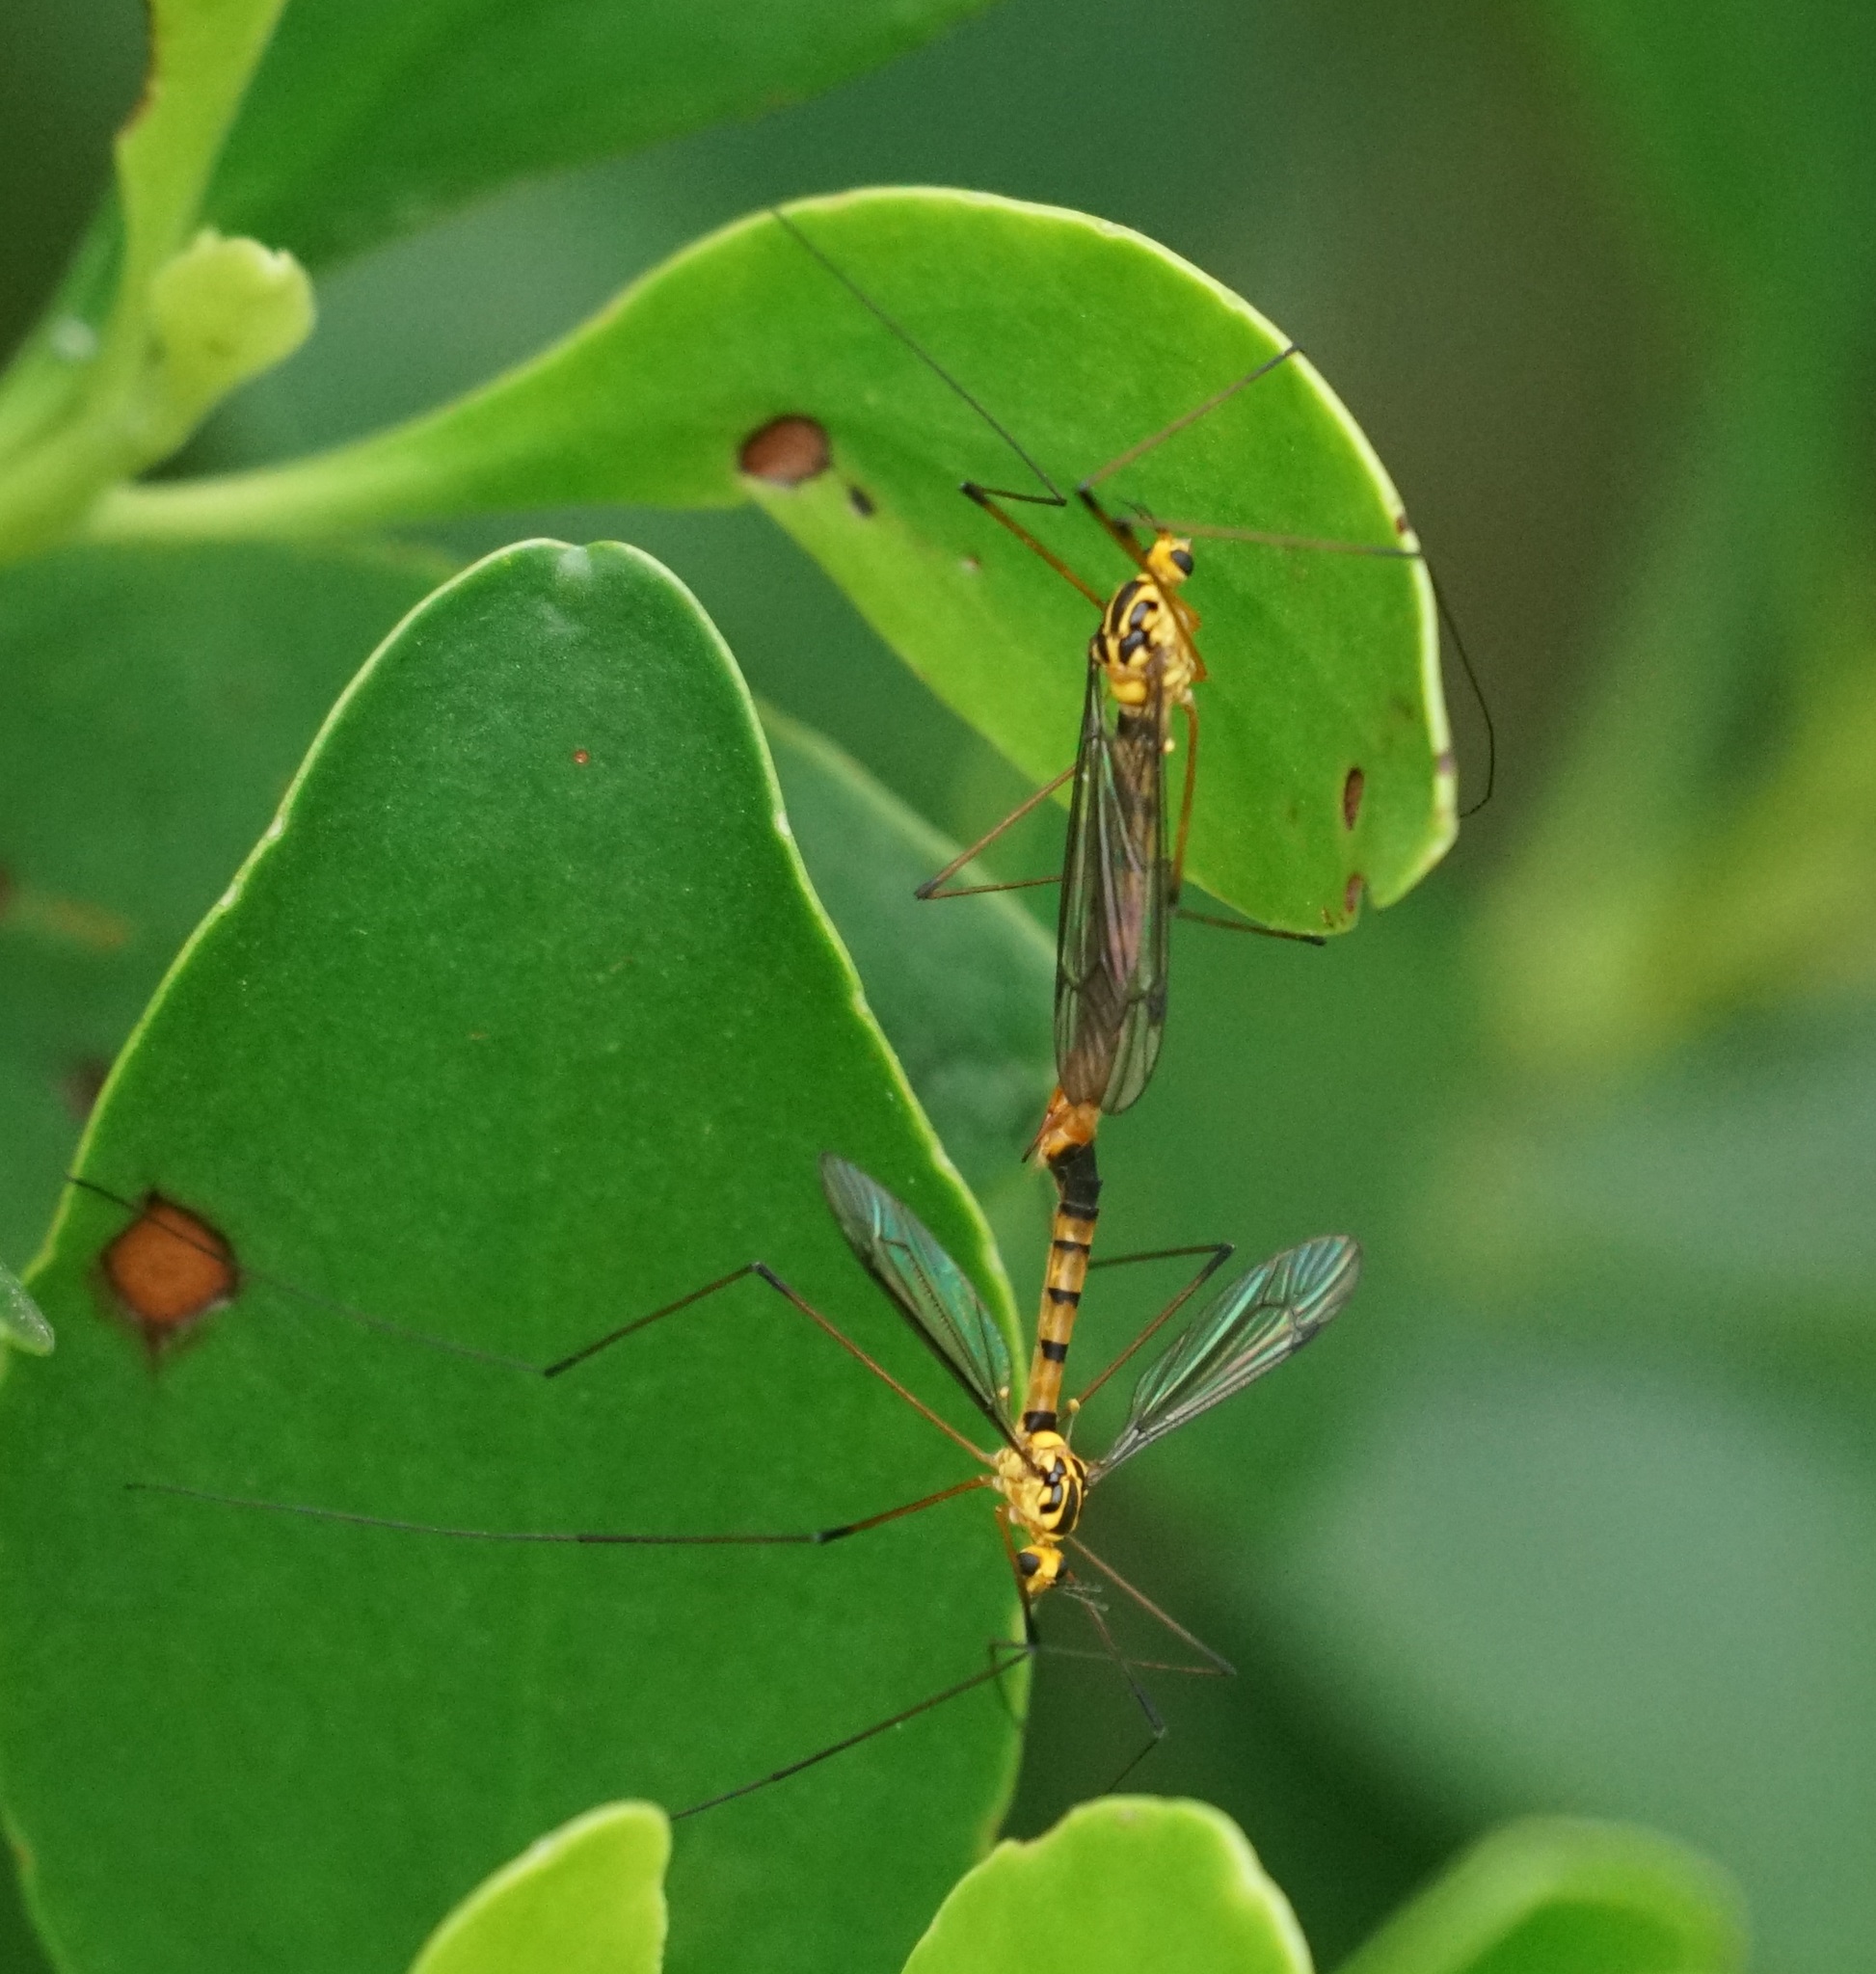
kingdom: Animalia
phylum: Arthropoda
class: Insecta
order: Diptera
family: Tipulidae
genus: Nephrotoma
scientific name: Nephrotoma australasiae
